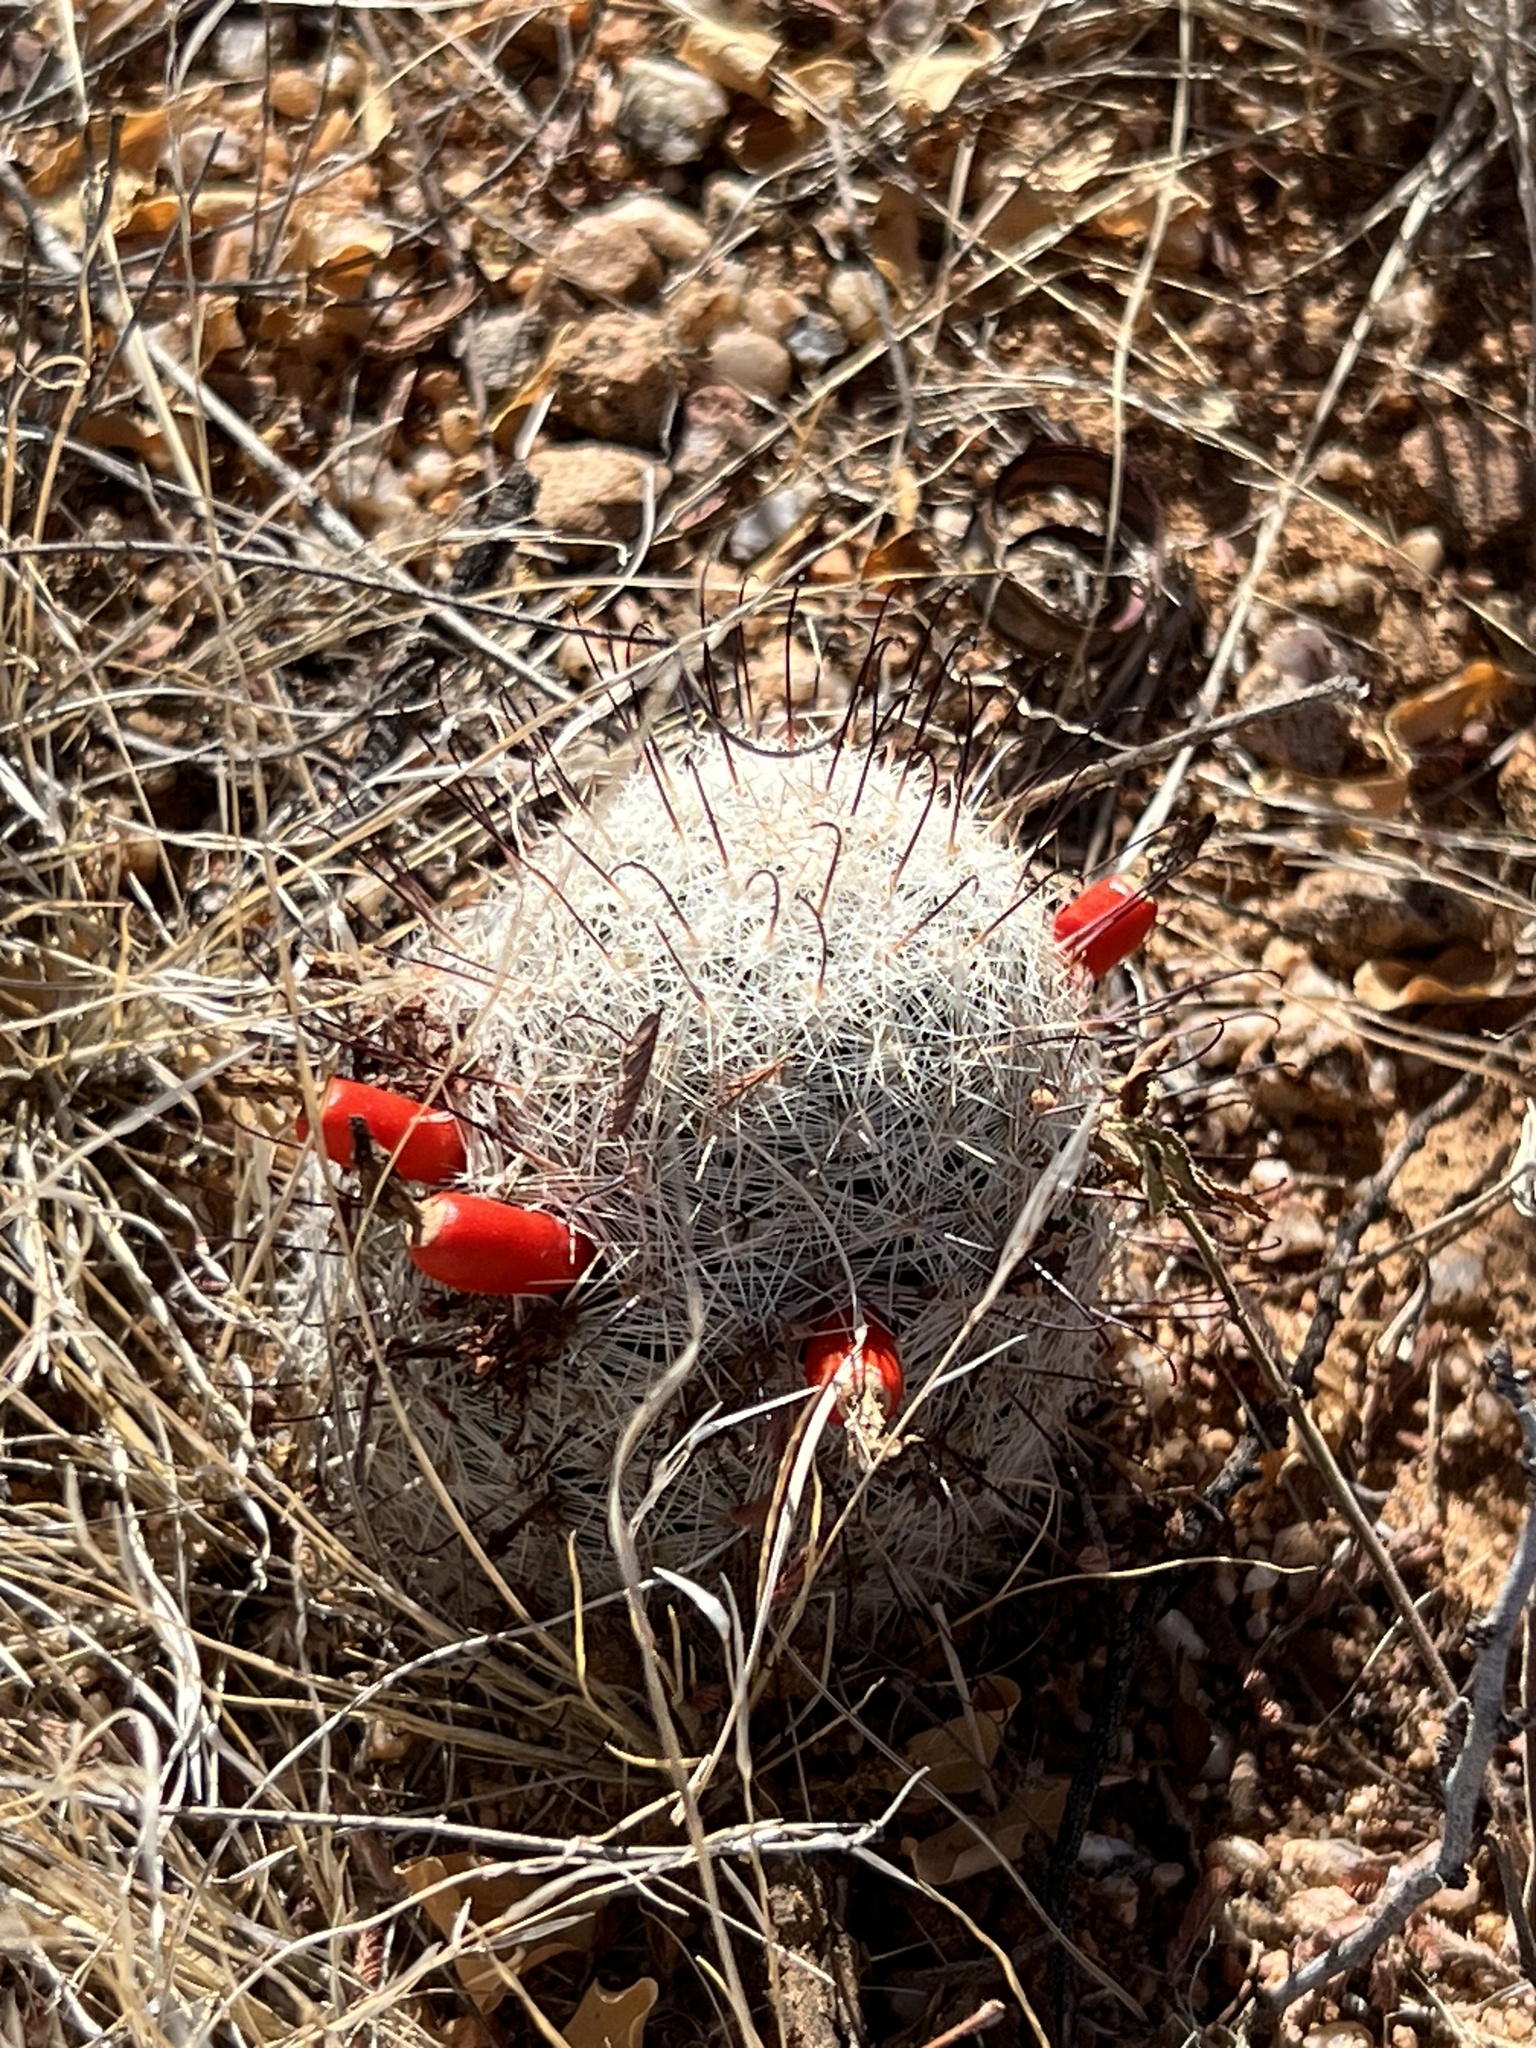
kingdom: Plantae
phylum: Tracheophyta
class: Magnoliopsida
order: Caryophyllales
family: Cactaceae
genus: Cochemiea
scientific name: Cochemiea grahamii
